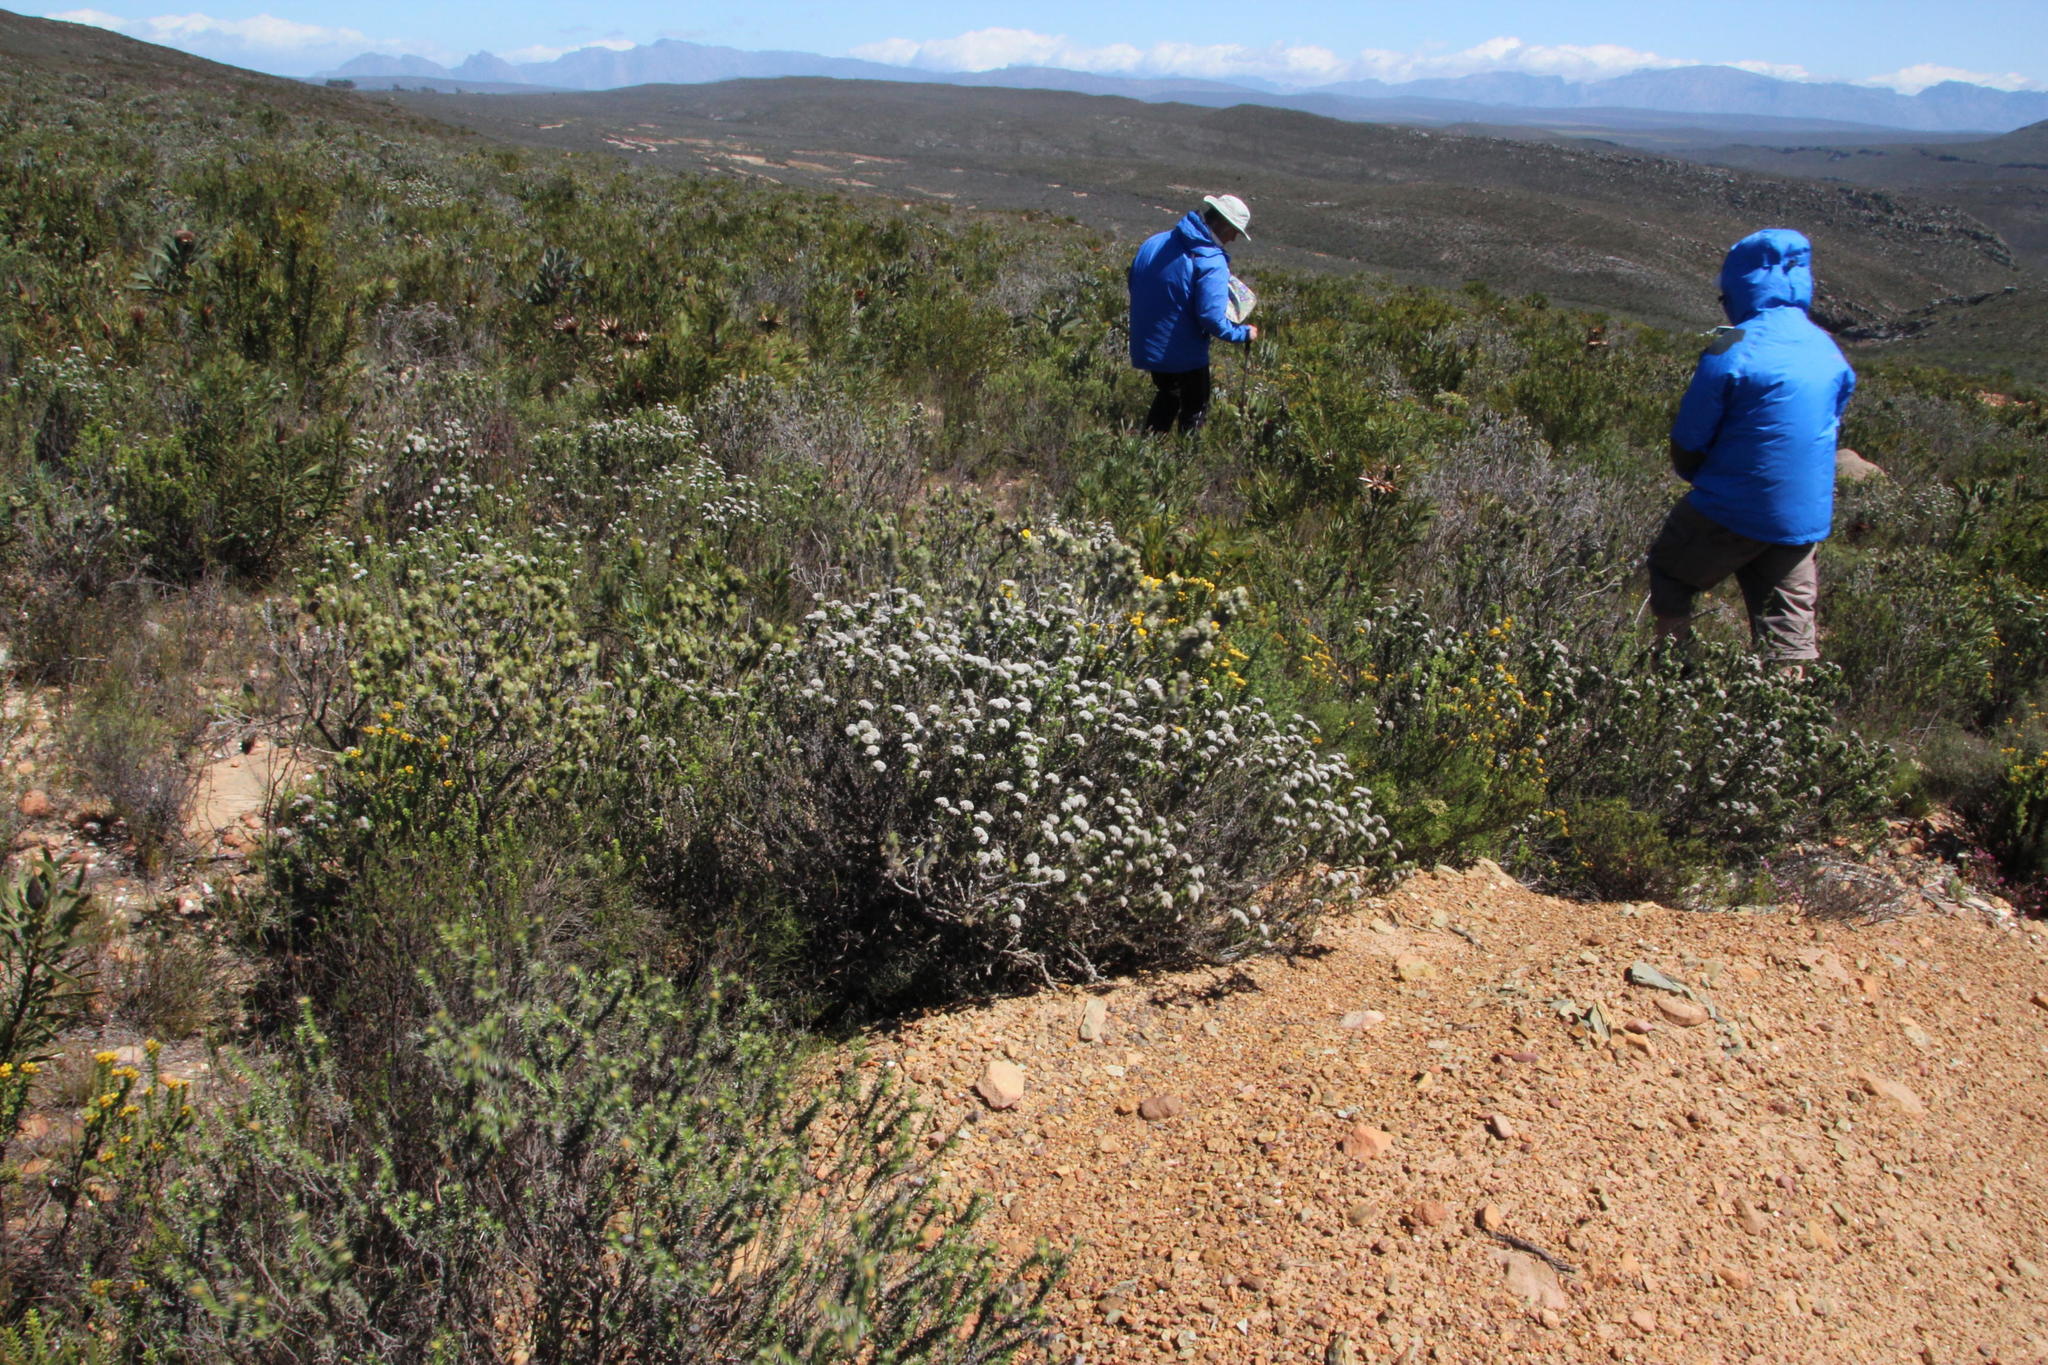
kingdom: Plantae
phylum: Tracheophyta
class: Magnoliopsida
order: Asterales
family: Asteraceae
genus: Metalasia
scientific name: Metalasia densa
